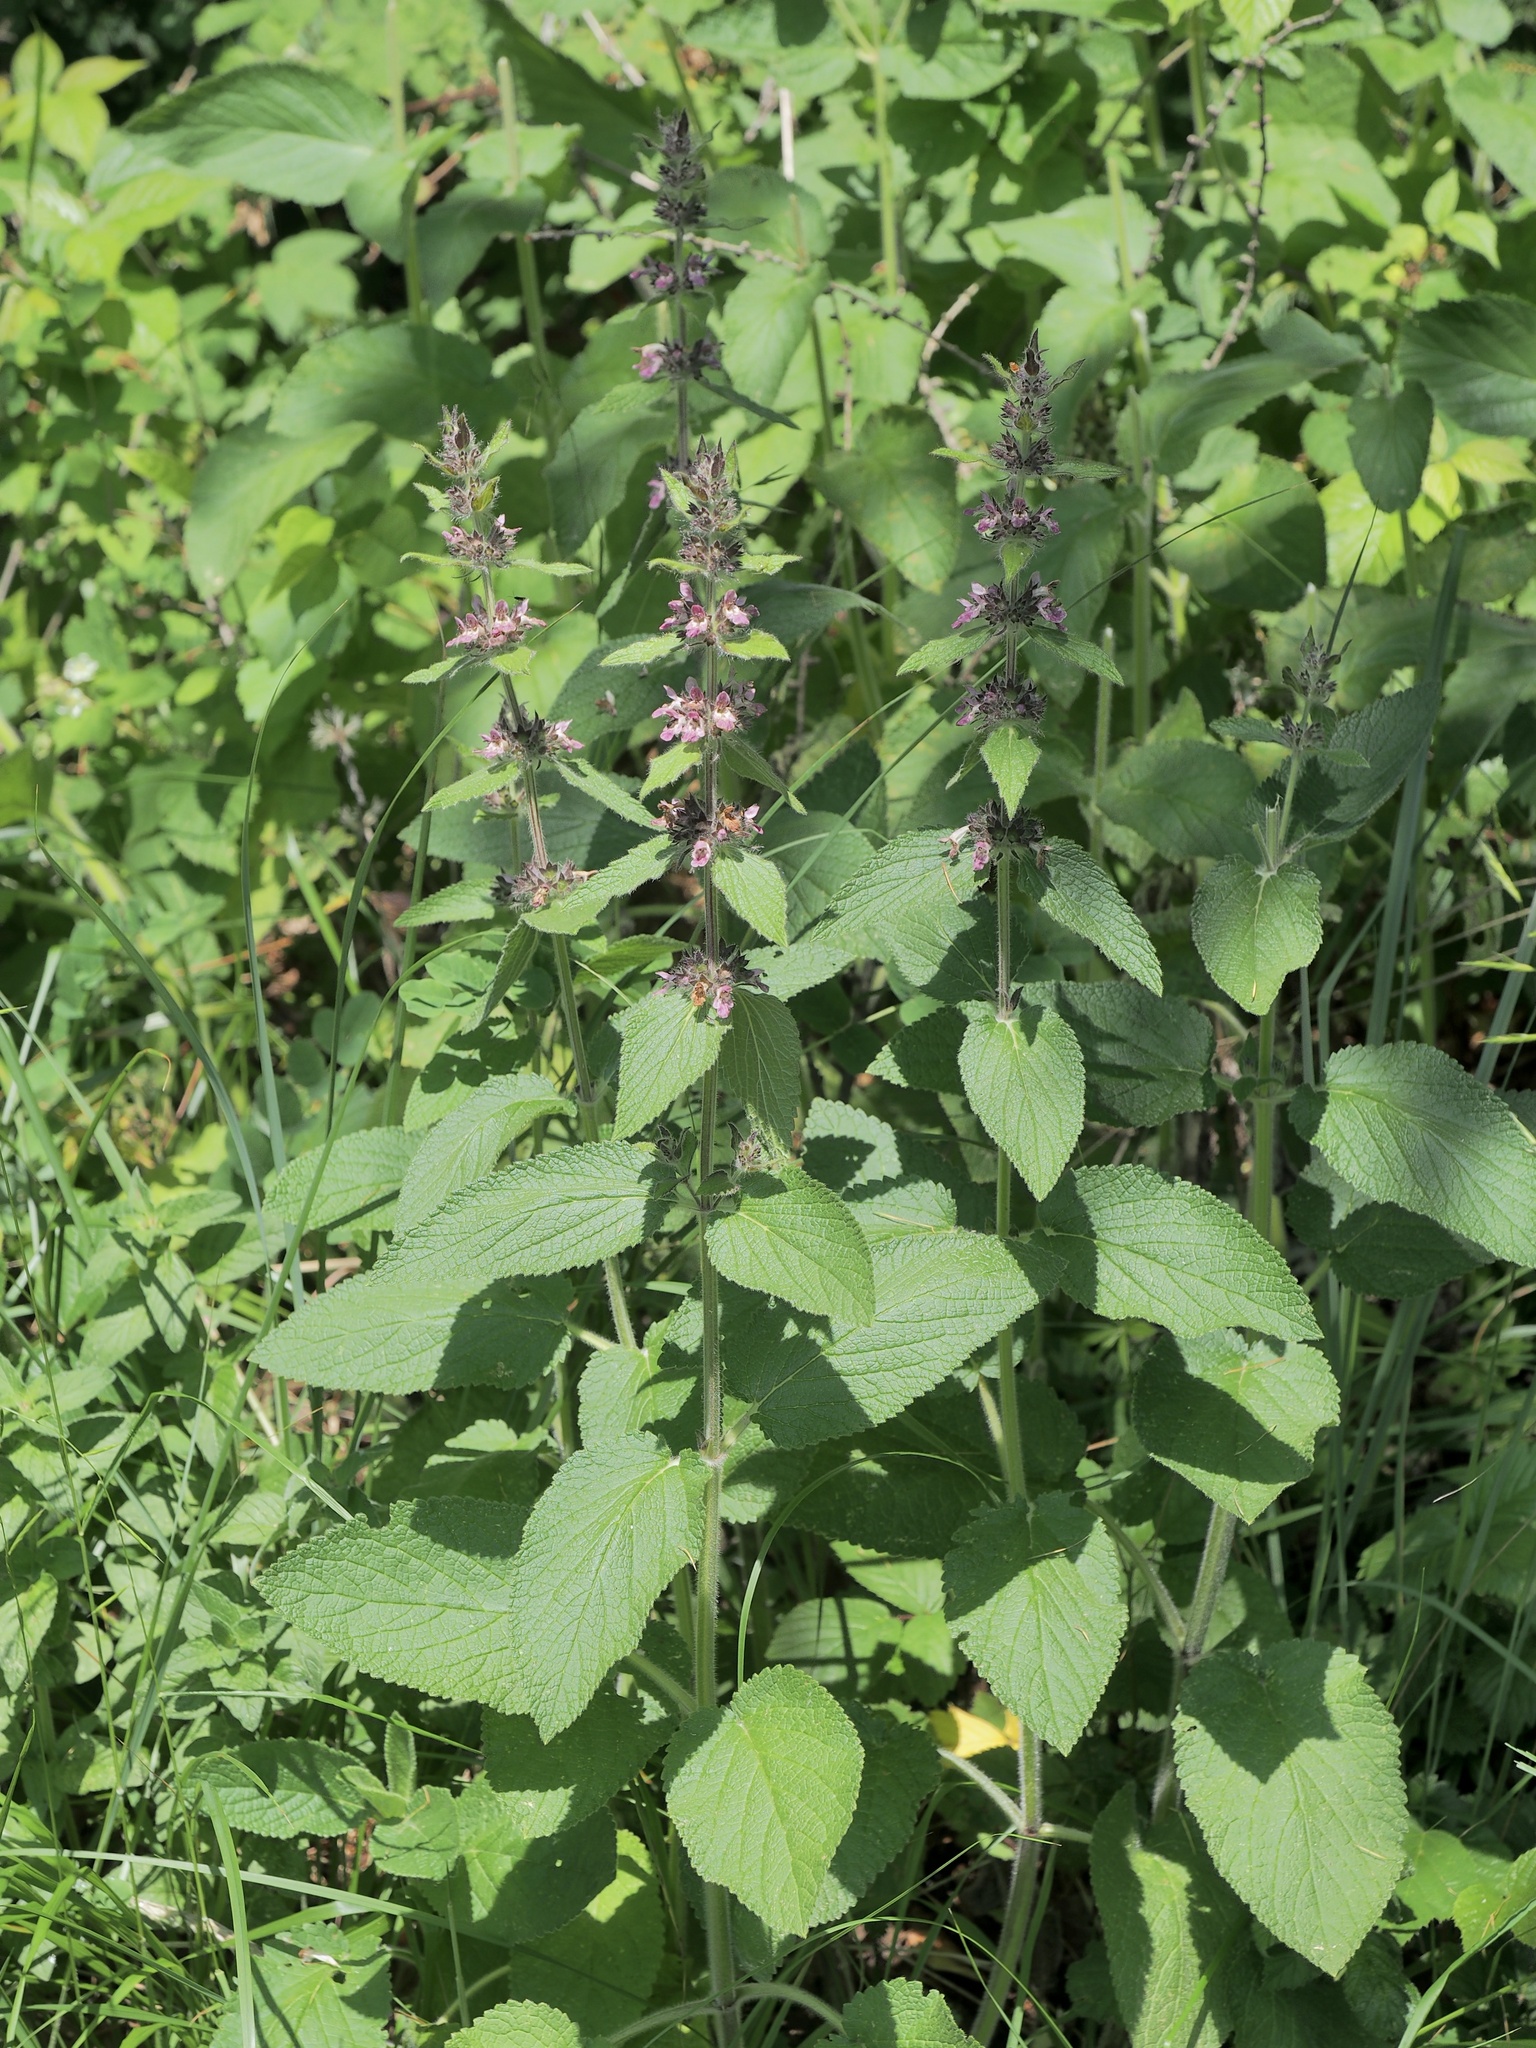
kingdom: Plantae
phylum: Tracheophyta
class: Magnoliopsida
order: Lamiales
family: Lamiaceae
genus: Stachys
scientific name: Stachys sylvatica
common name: Hedge woundwort
